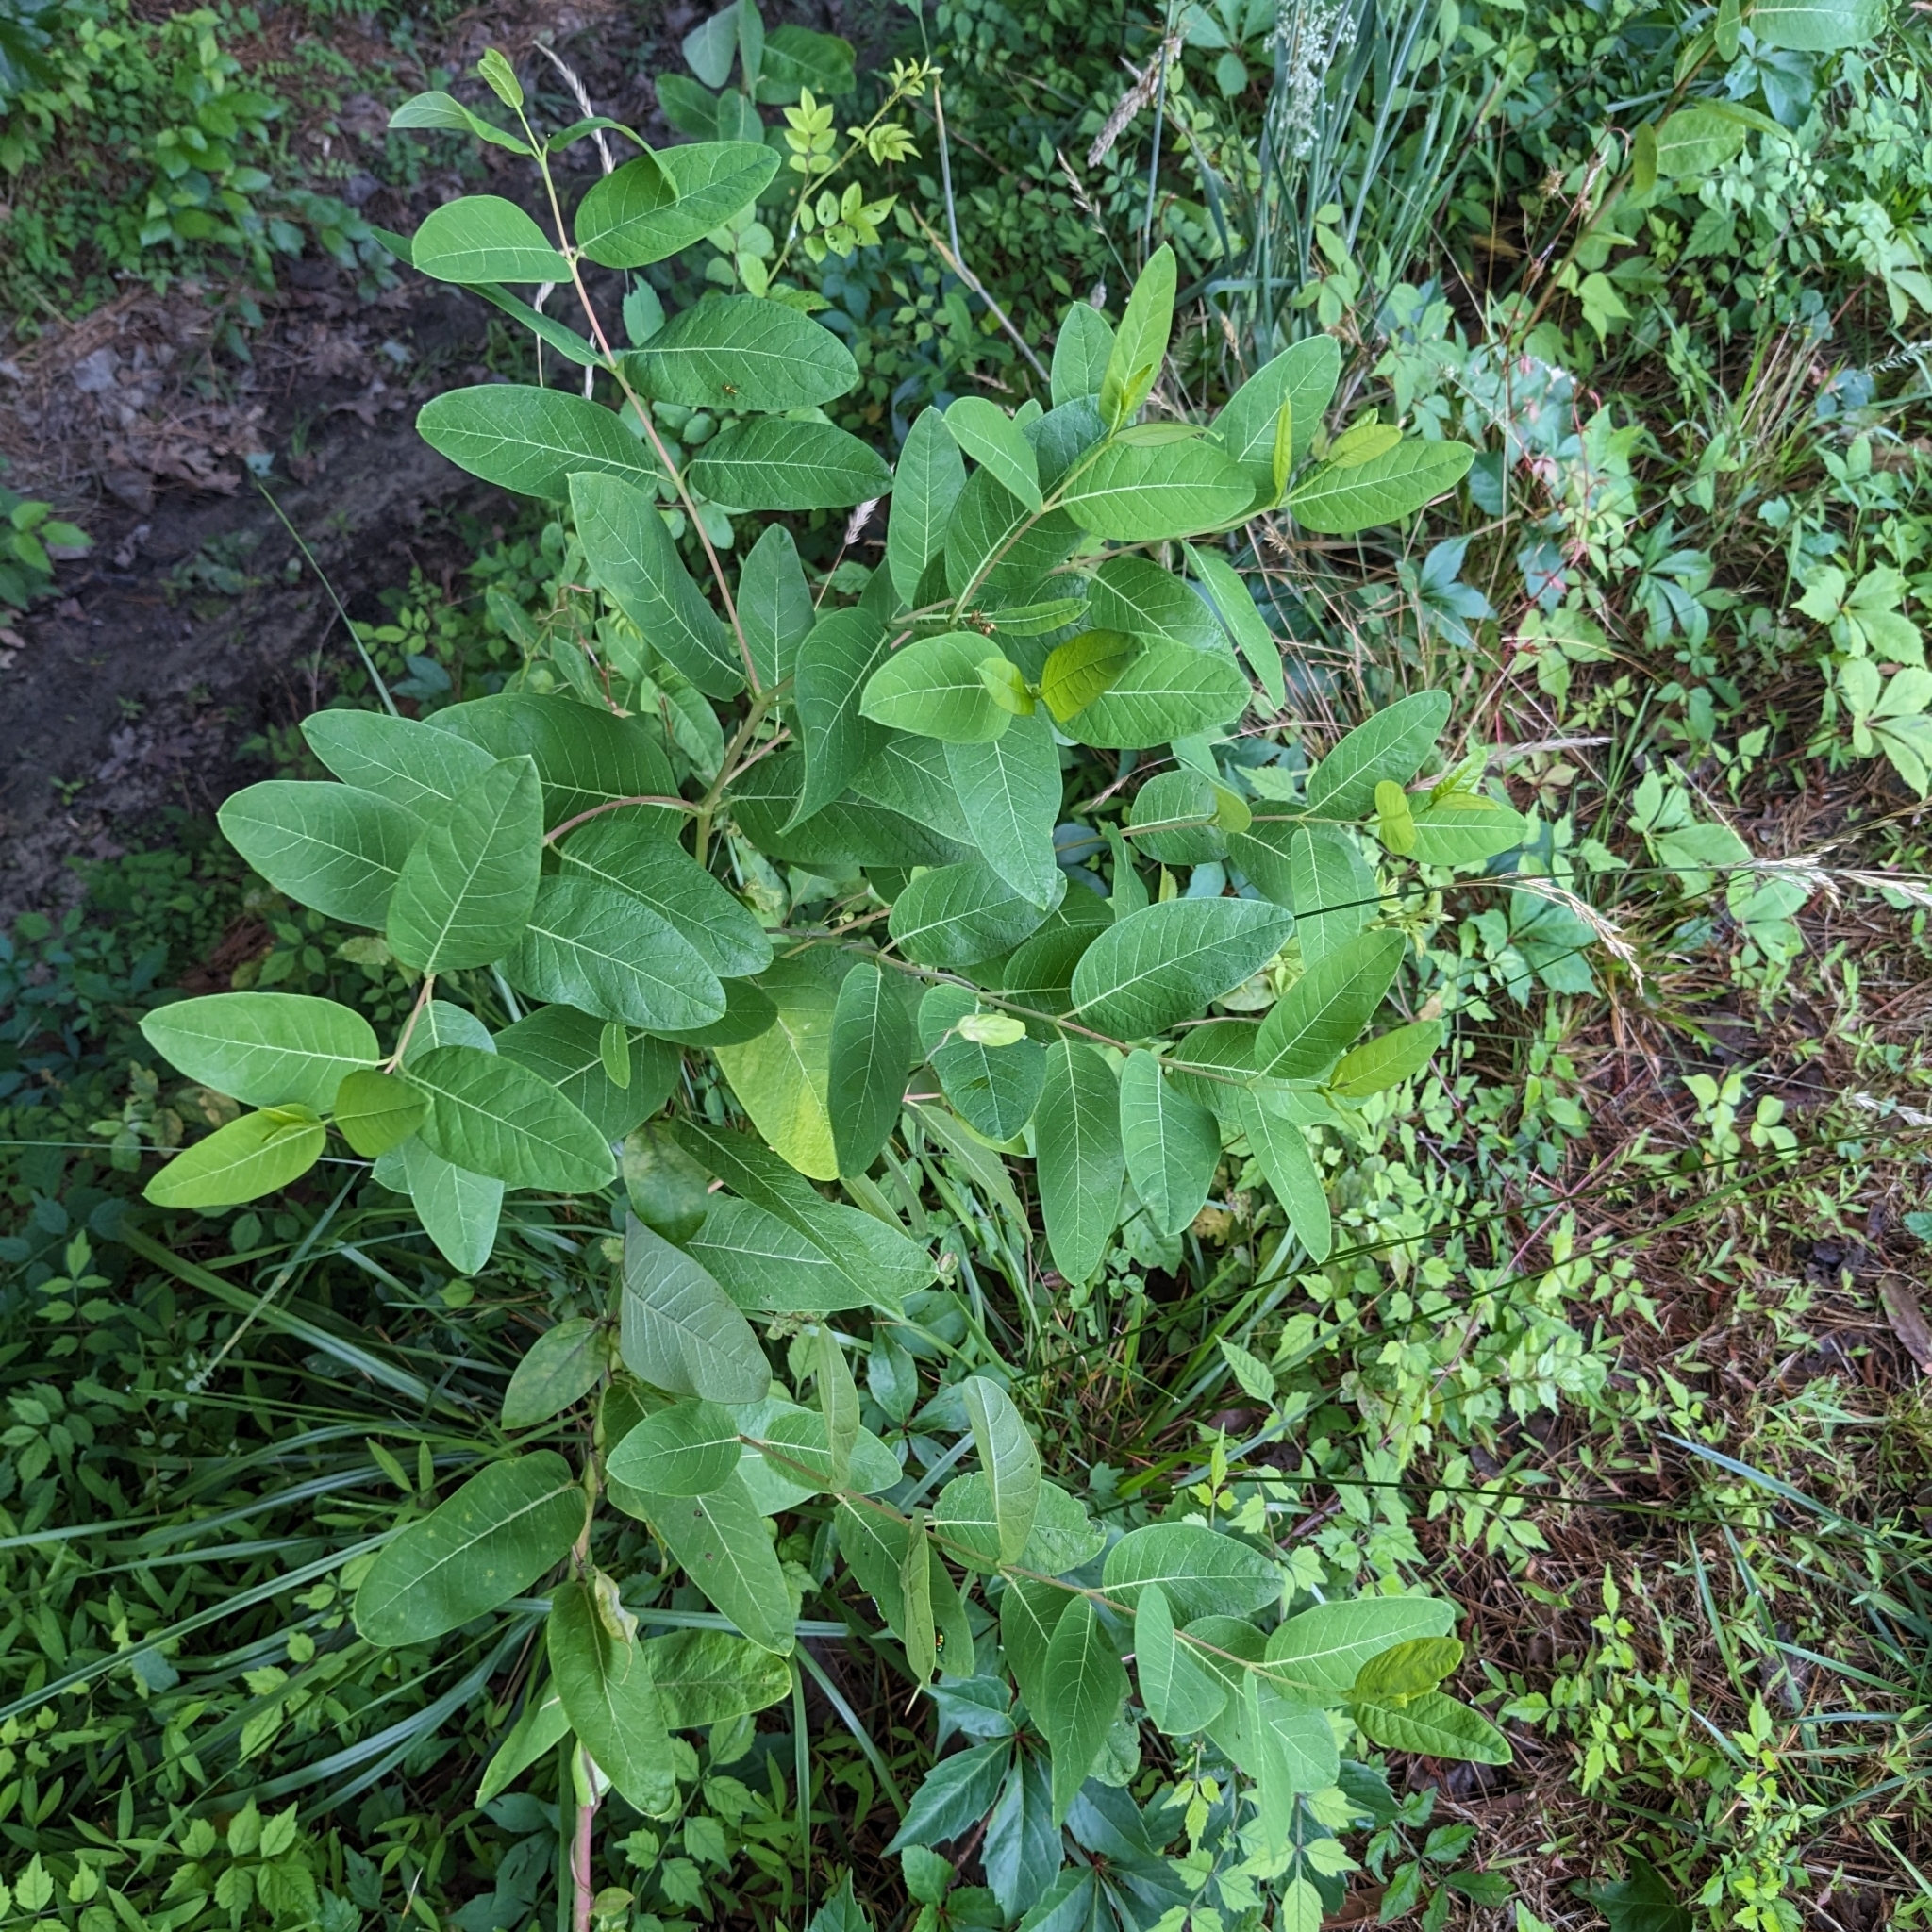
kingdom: Plantae
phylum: Tracheophyta
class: Magnoliopsida
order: Gentianales
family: Apocynaceae
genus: Apocynum
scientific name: Apocynum cannabinum
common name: Hemp dogbane
